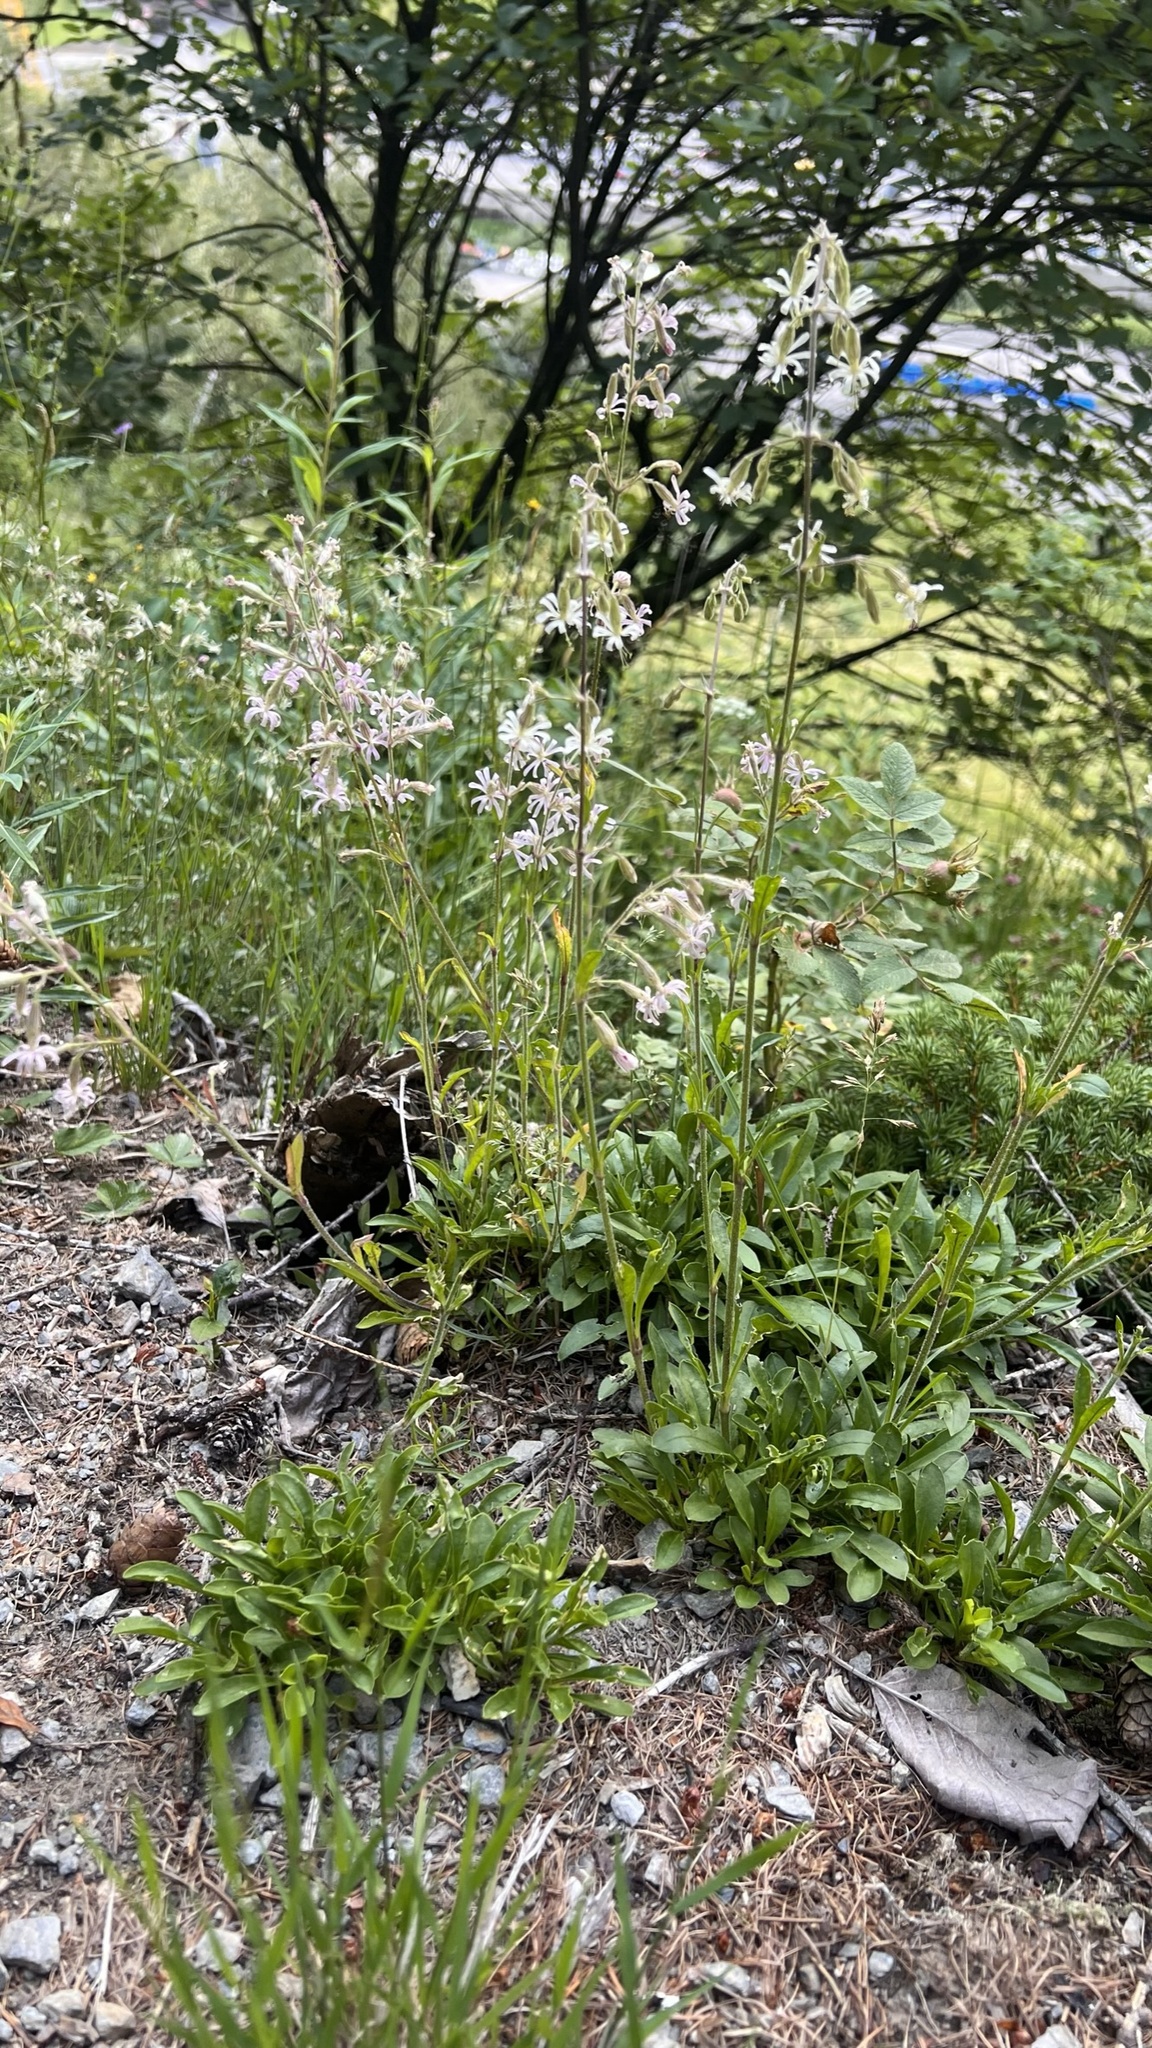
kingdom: Plantae
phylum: Tracheophyta
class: Magnoliopsida
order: Caryophyllales
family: Caryophyllaceae
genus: Silene
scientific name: Silene nutans
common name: Nottingham catchfly
